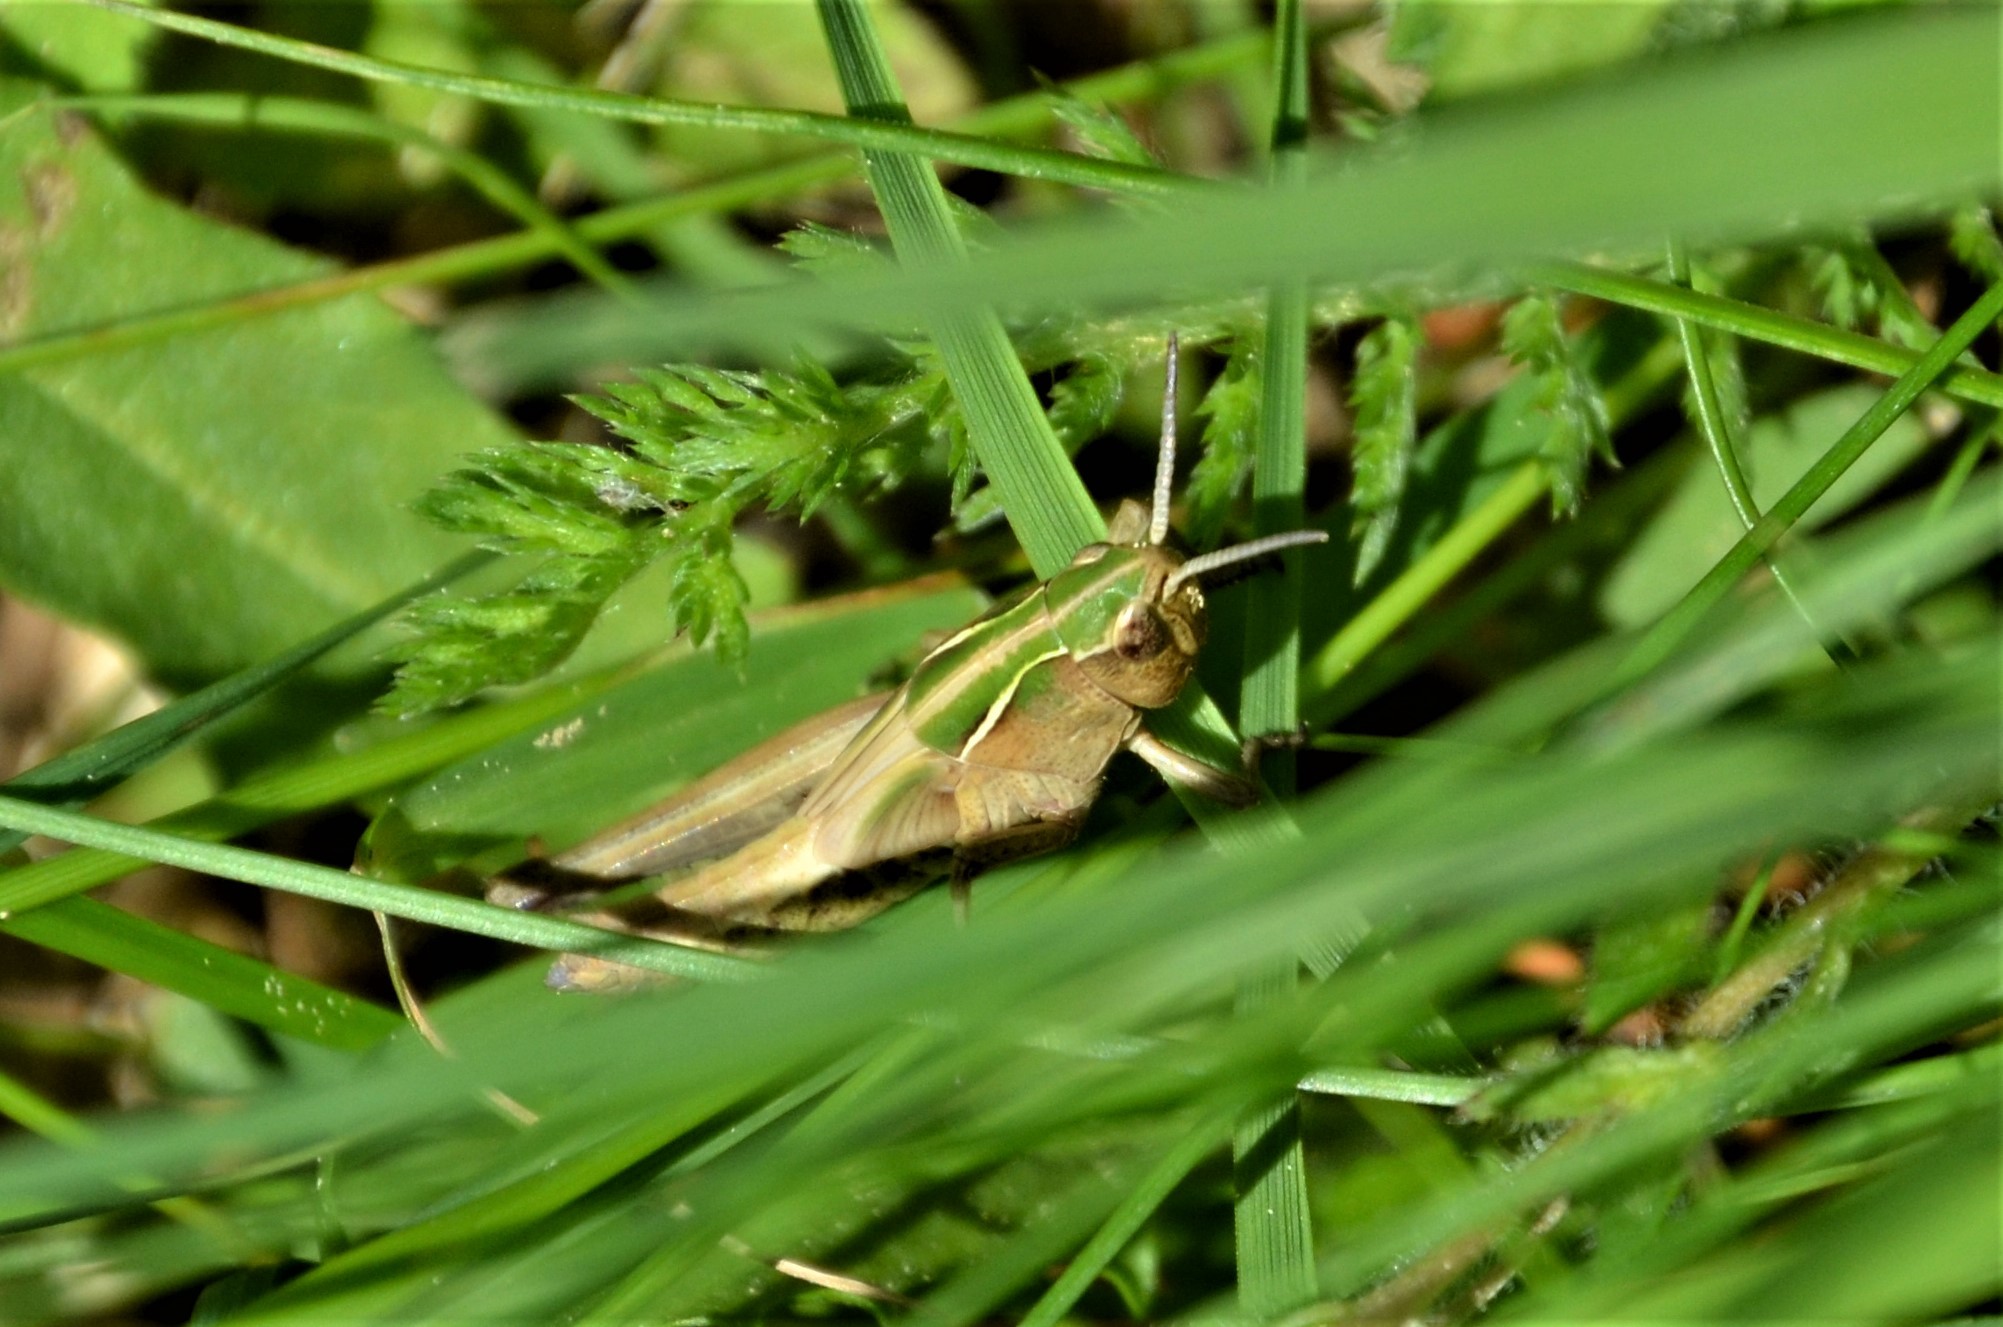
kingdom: Animalia
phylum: Arthropoda
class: Insecta
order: Orthoptera
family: Acrididae
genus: Omocestus
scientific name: Omocestus viridulus
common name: Common green grasshopper
